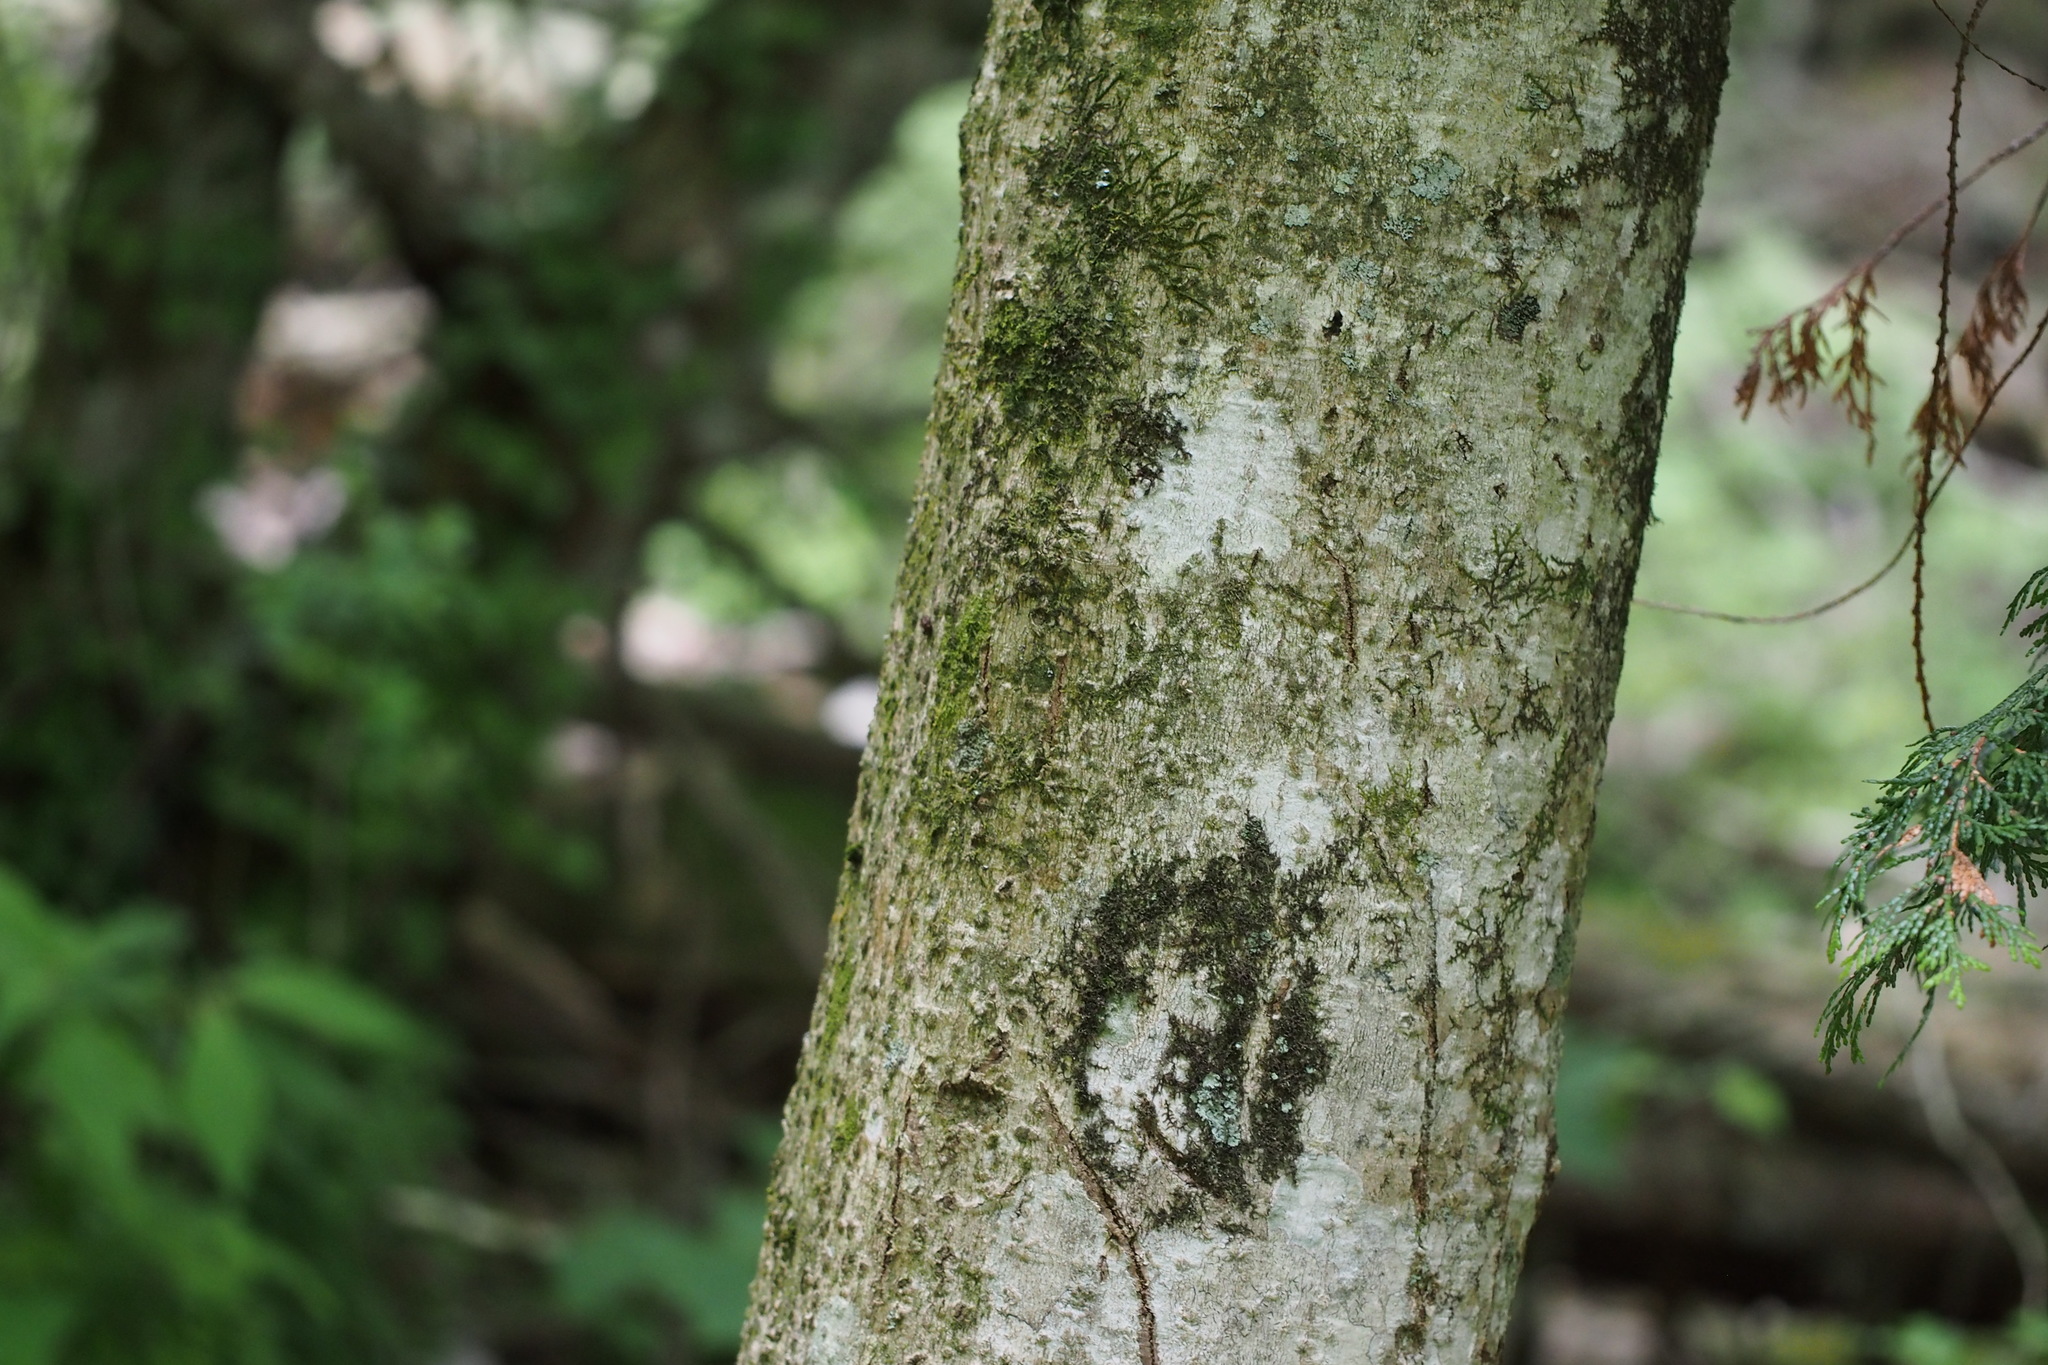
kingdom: Plantae
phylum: Tracheophyta
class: Magnoliopsida
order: Magnoliales
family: Magnoliaceae
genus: Magnolia
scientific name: Magnolia obovata
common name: Japanese whitebark magnolia
